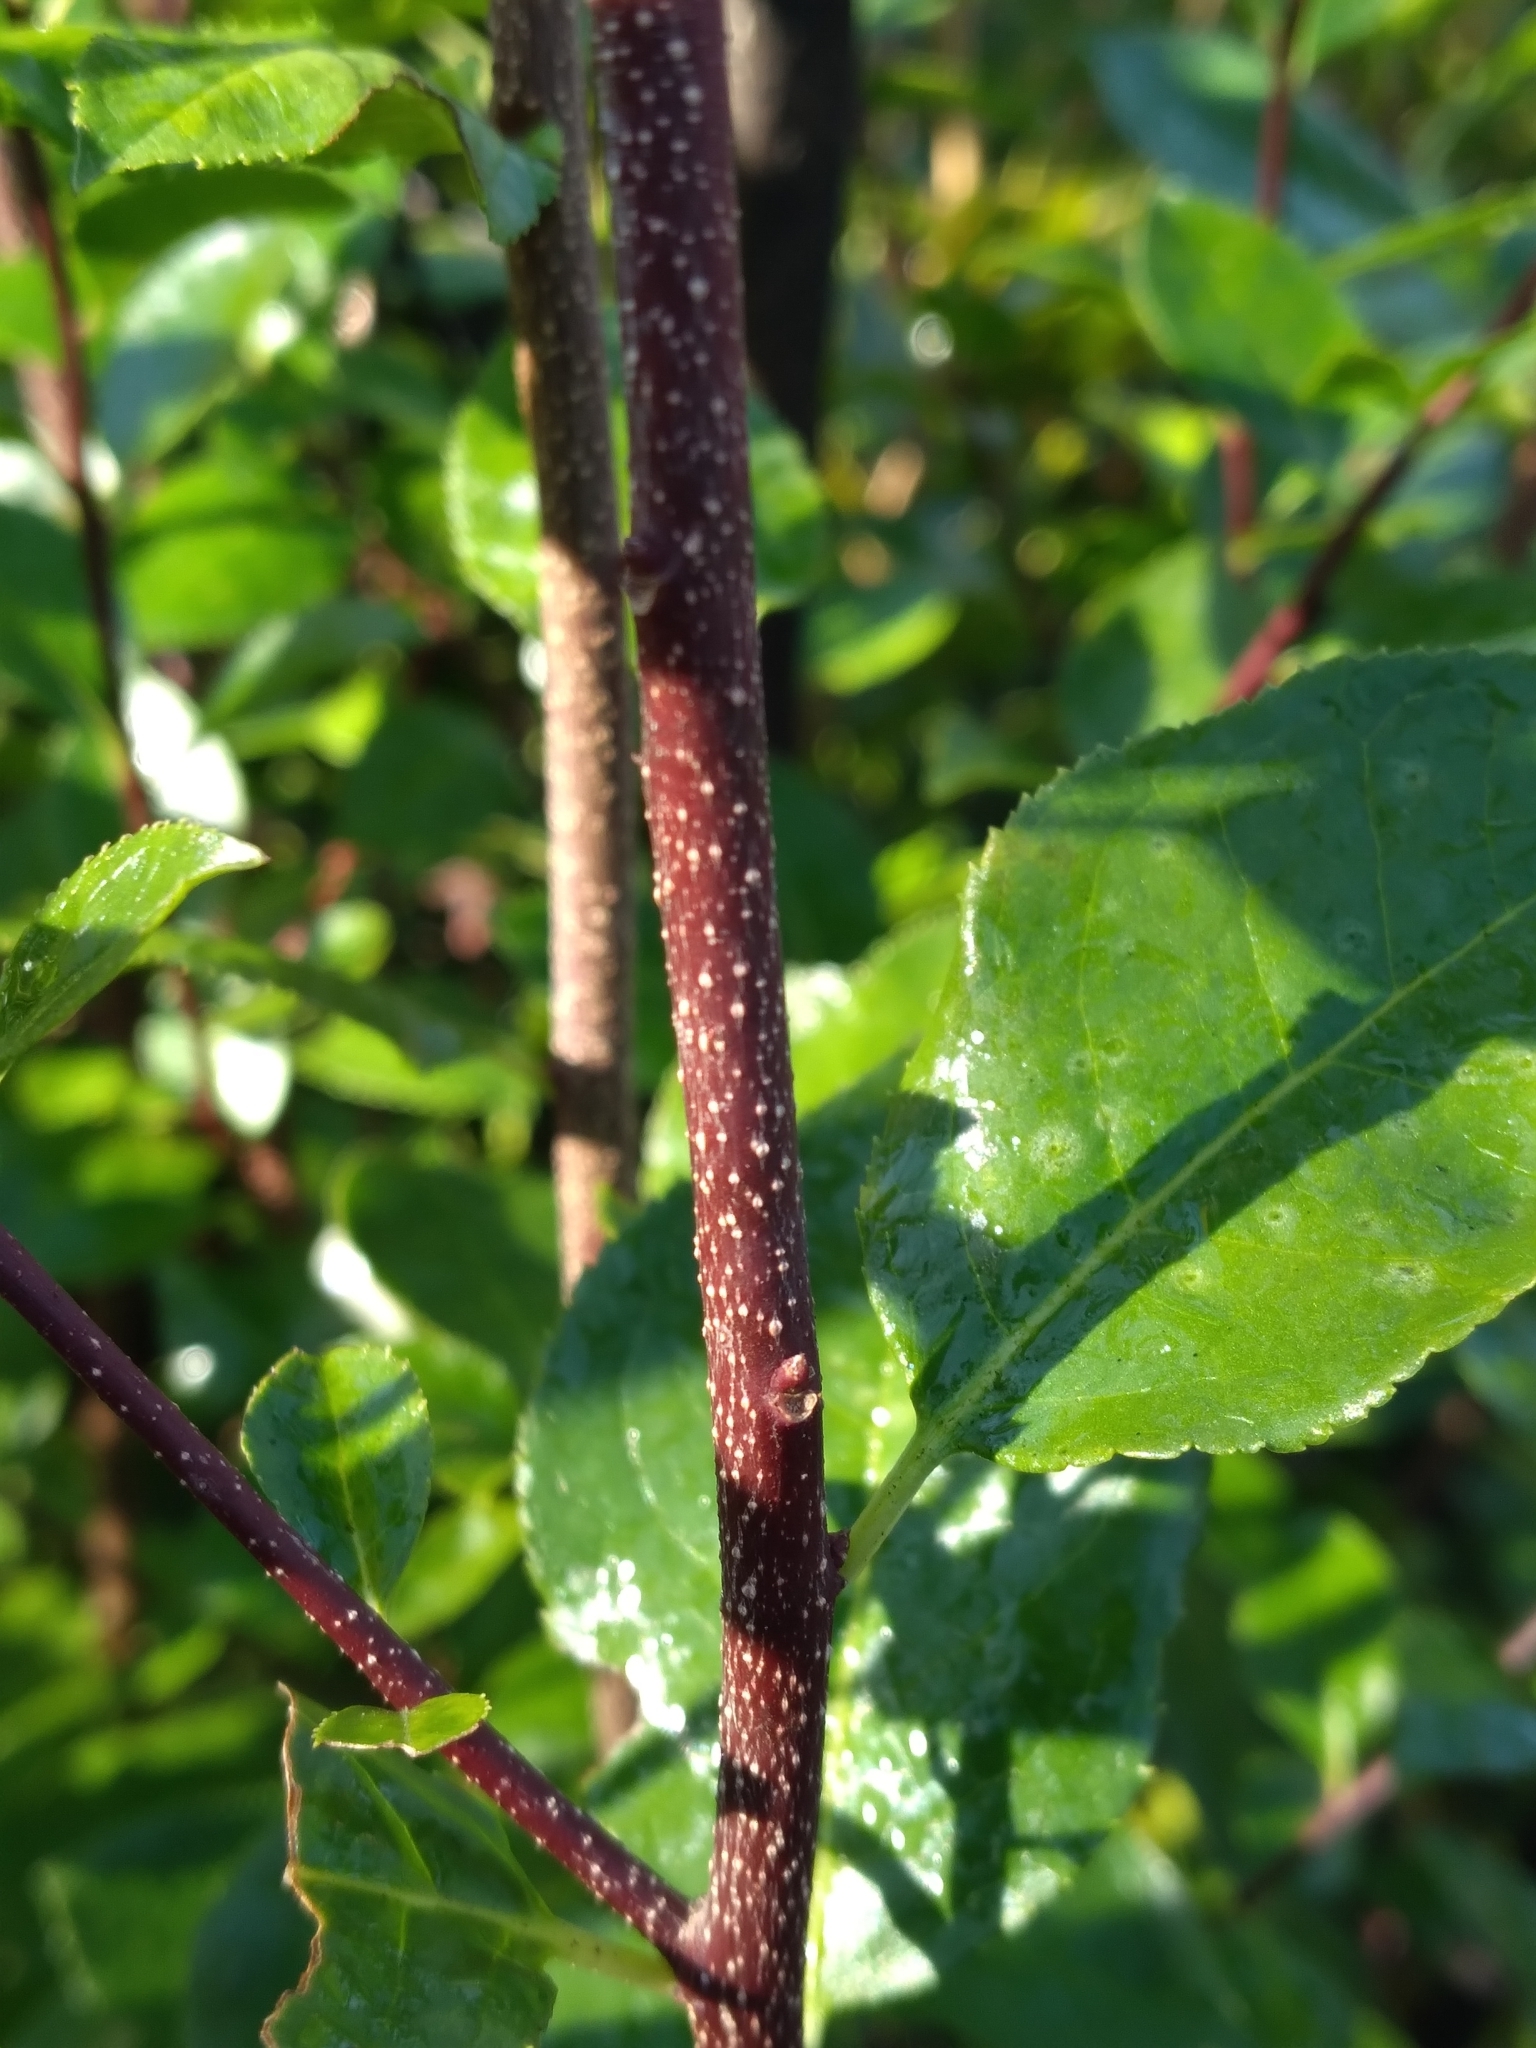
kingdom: Plantae
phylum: Tracheophyta
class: Magnoliopsida
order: Aquifoliales
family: Aquifoliaceae
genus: Ilex
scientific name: Ilex ambigua
